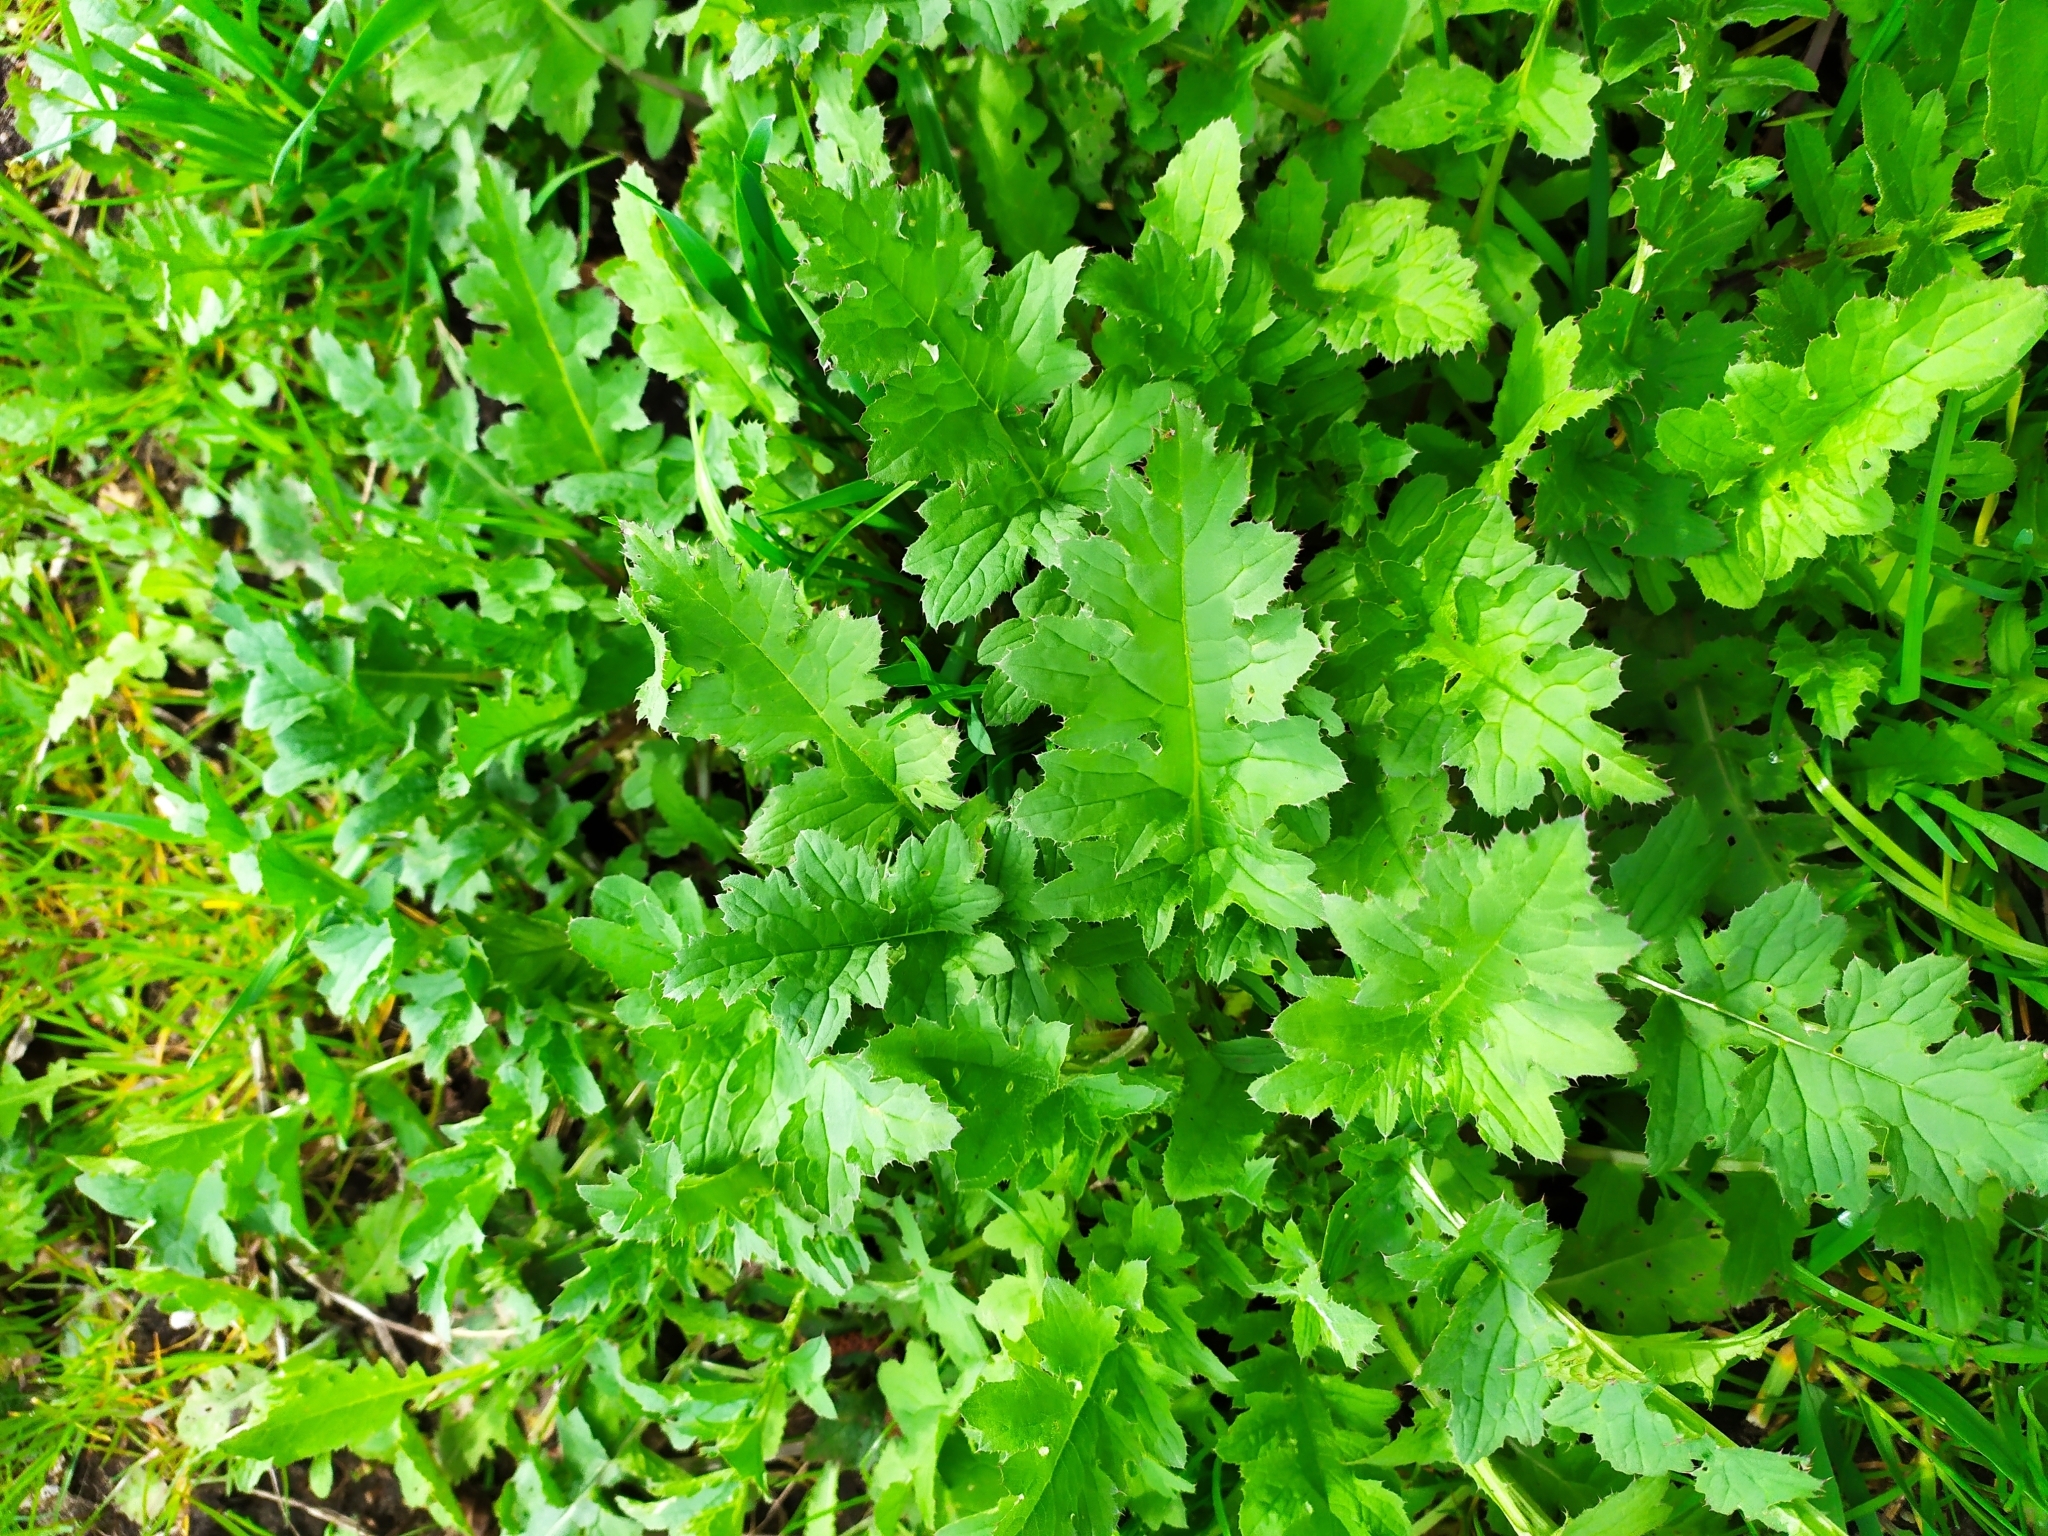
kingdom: Plantae
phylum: Tracheophyta
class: Magnoliopsida
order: Asterales
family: Asteraceae
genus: Carduus
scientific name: Carduus crispus
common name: Welted thistle
